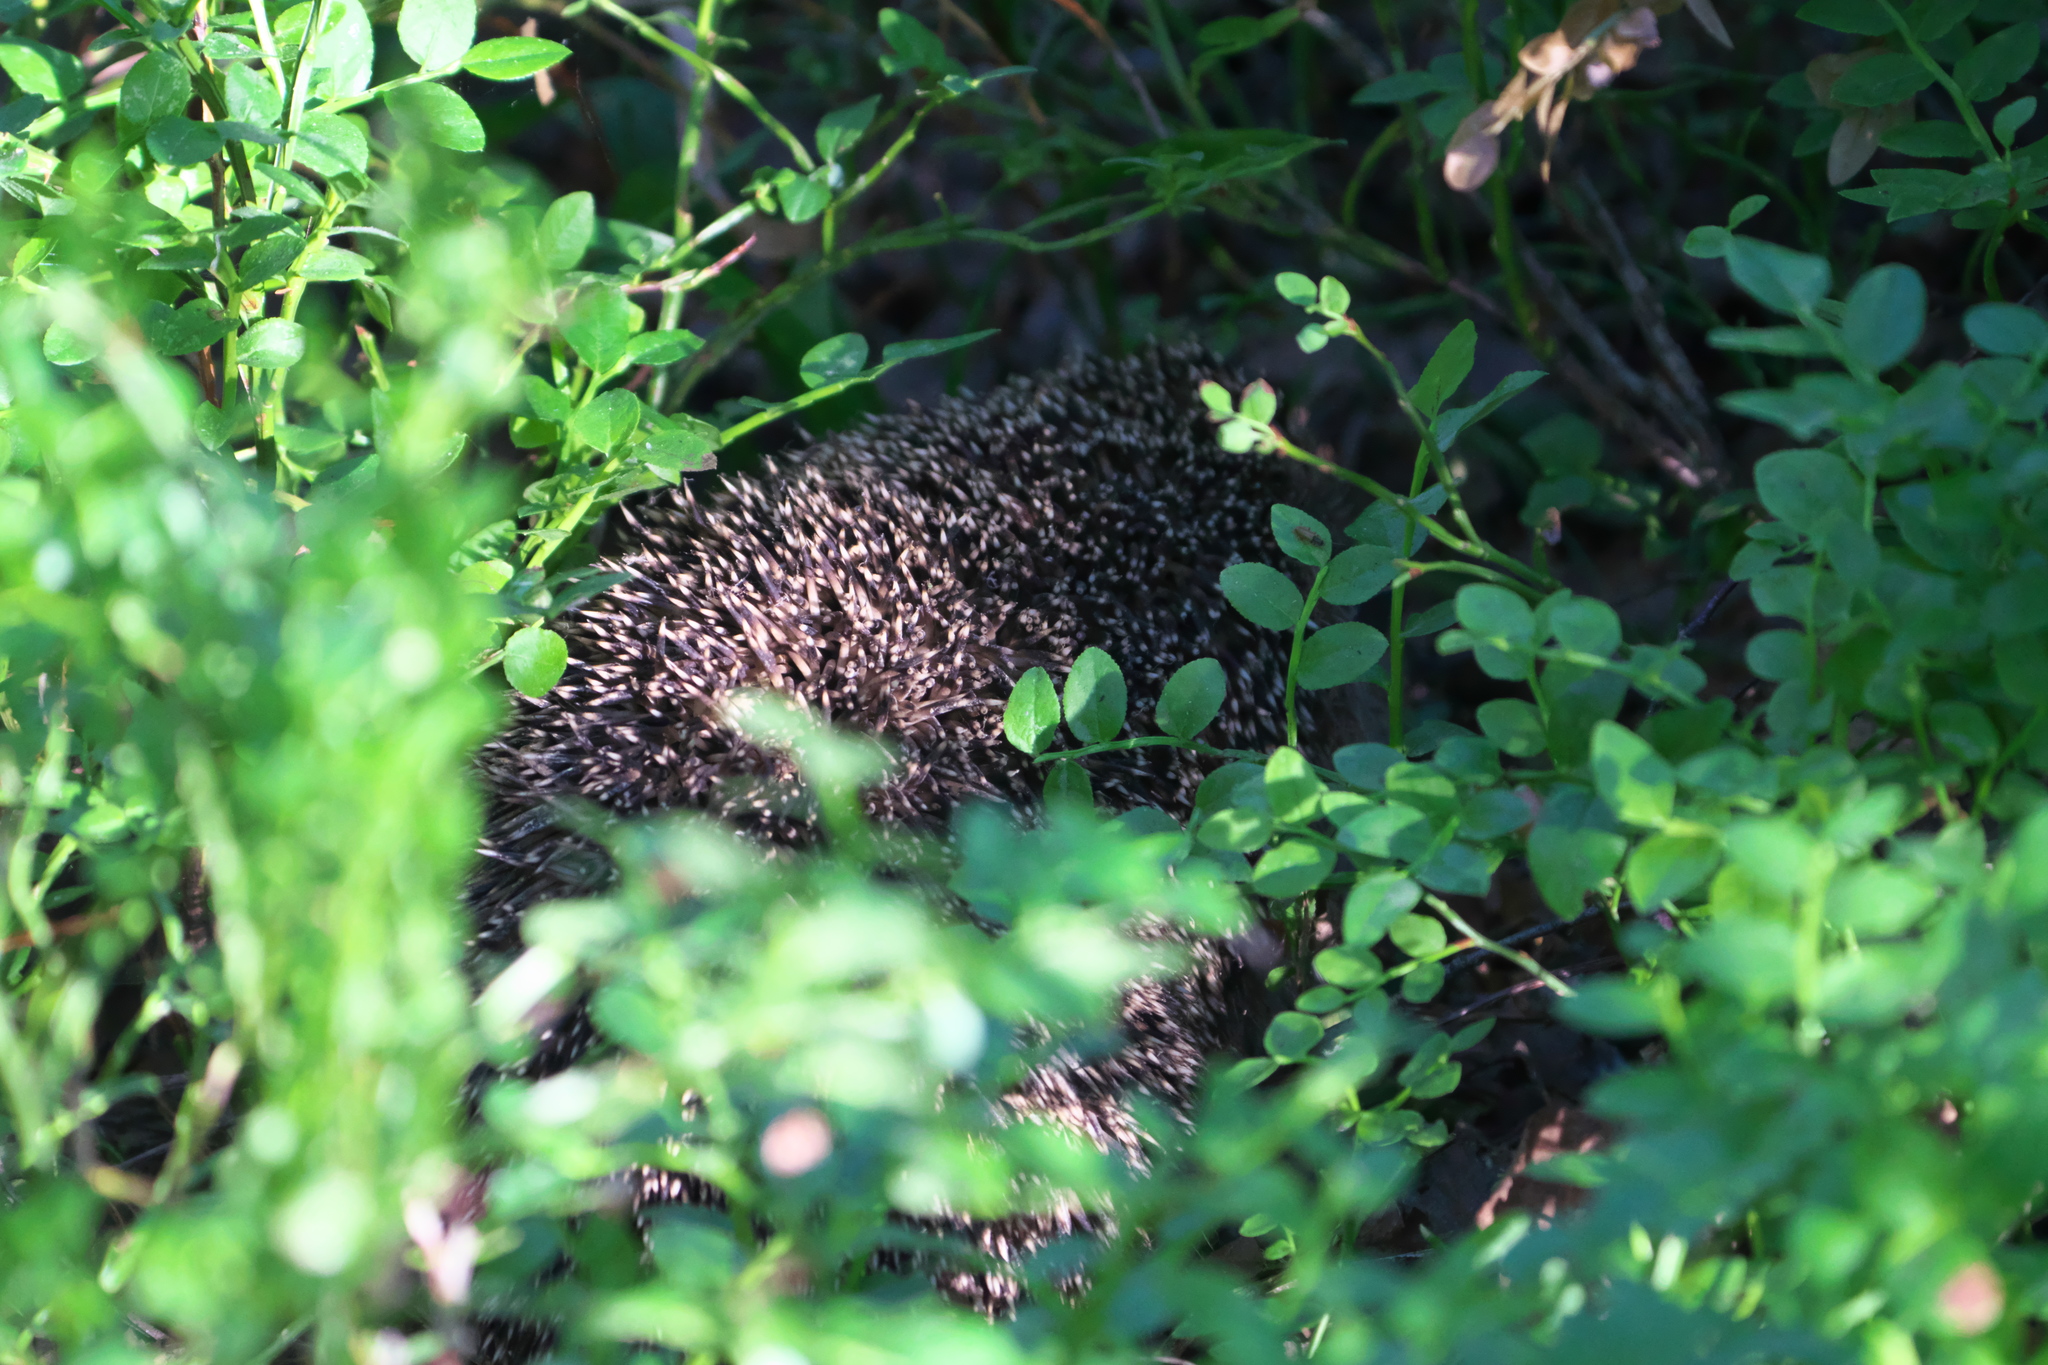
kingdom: Animalia
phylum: Chordata
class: Mammalia
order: Erinaceomorpha
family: Erinaceidae
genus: Erinaceus
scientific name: Erinaceus europaeus
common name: West european hedgehog
